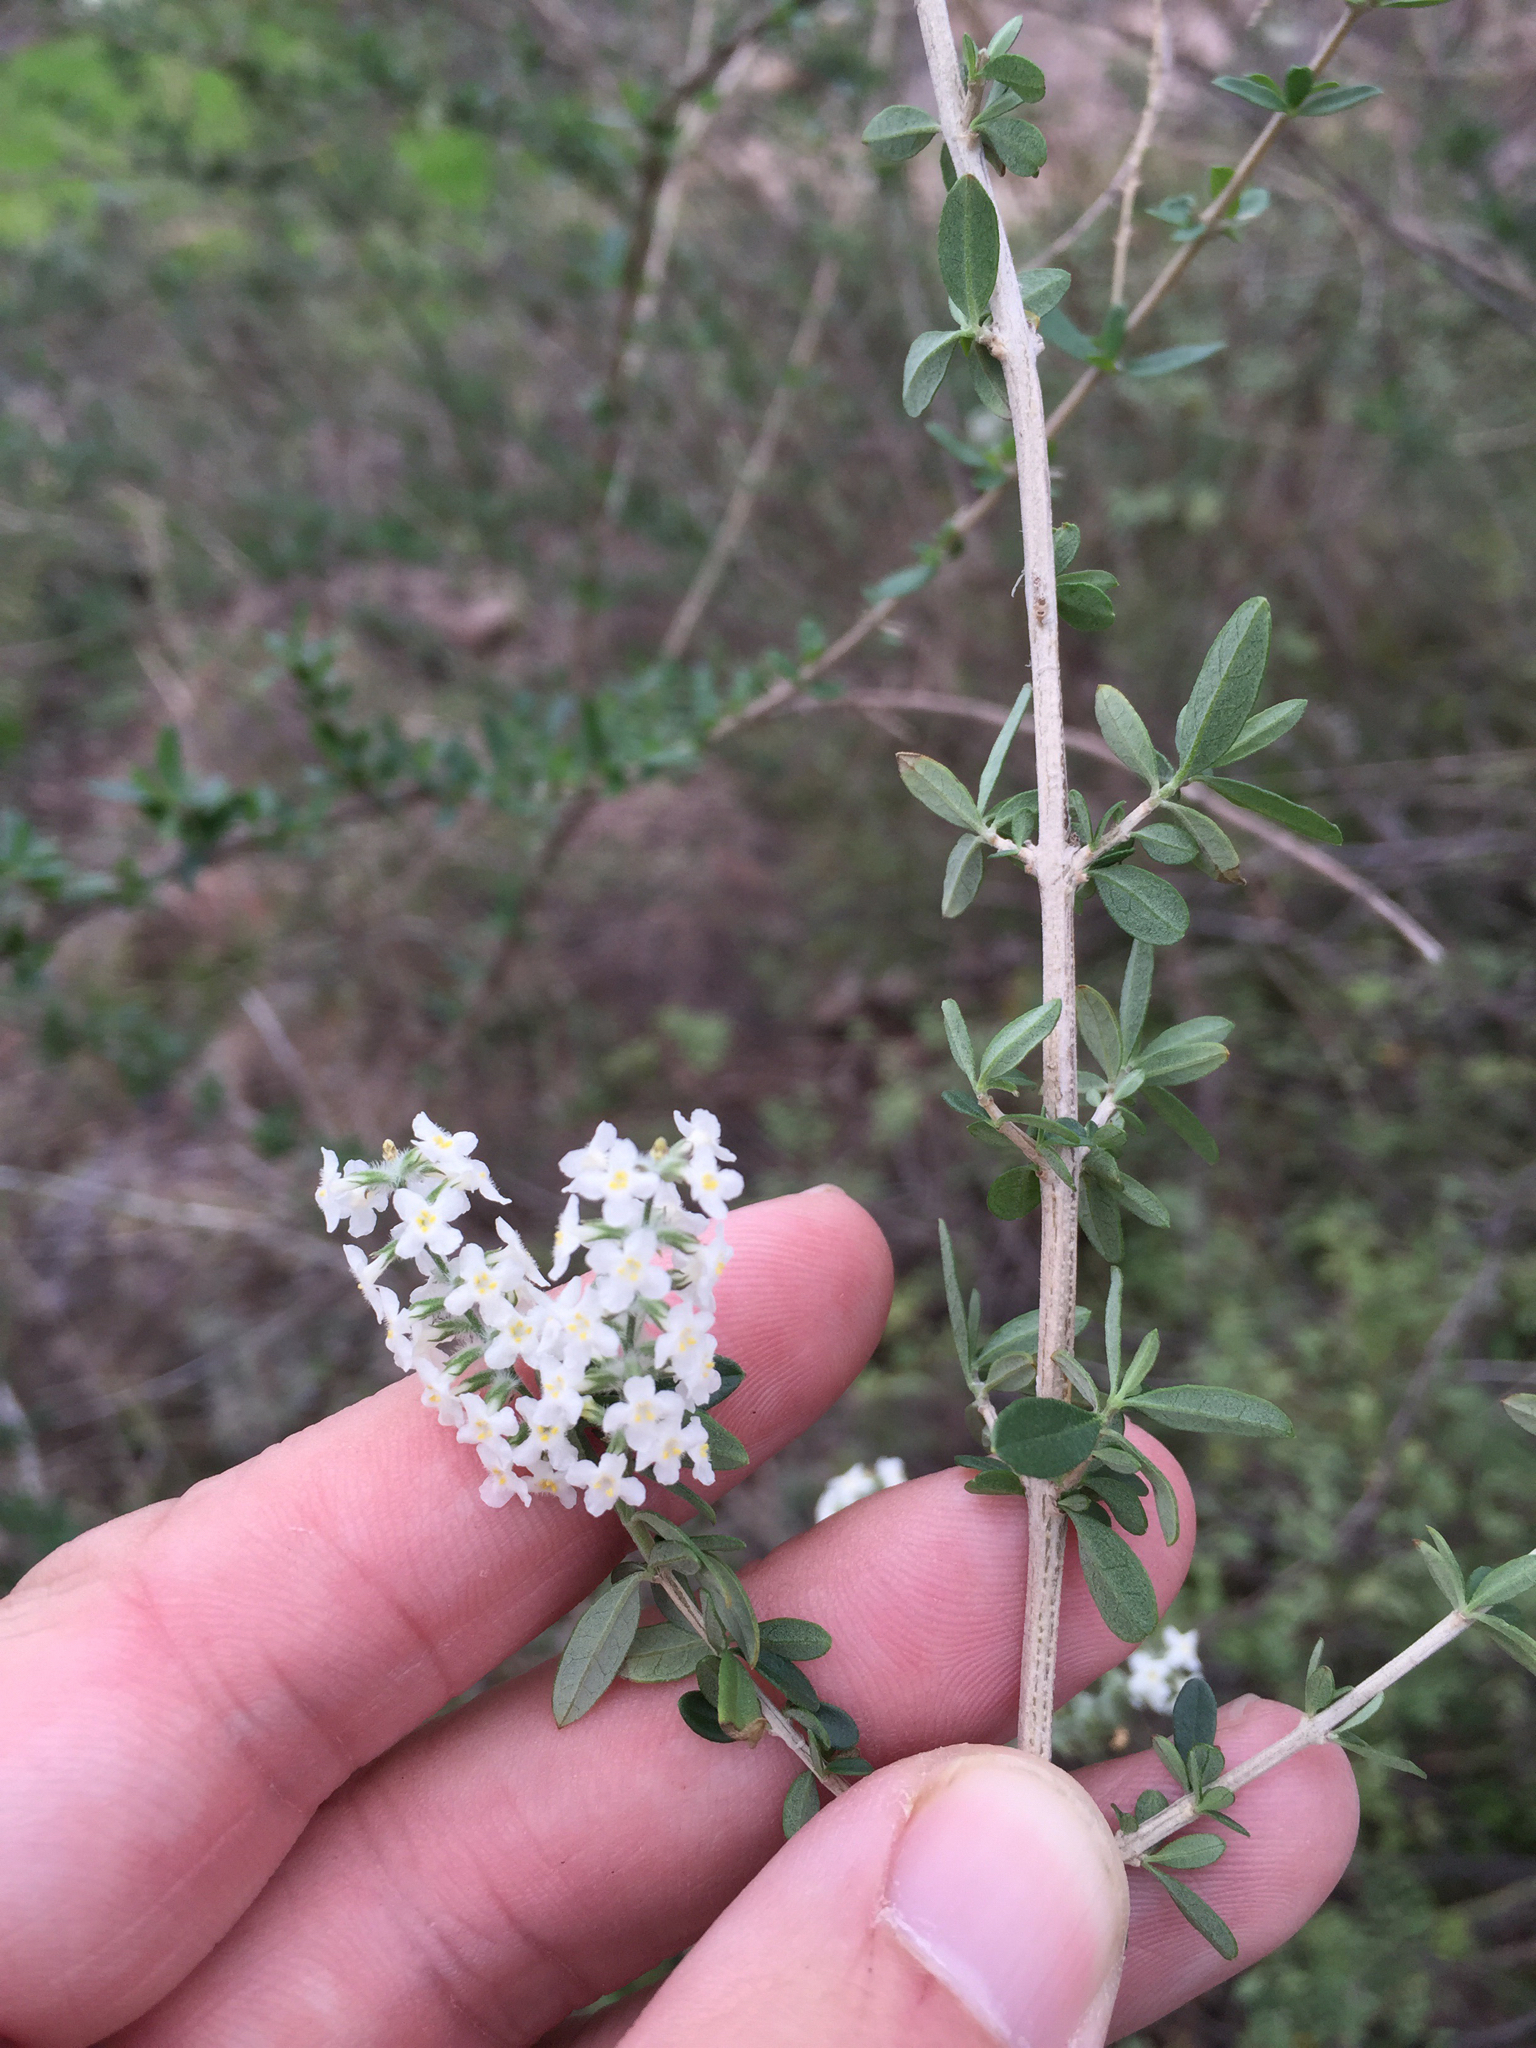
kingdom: Plantae
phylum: Tracheophyta
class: Magnoliopsida
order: Lamiales
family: Verbenaceae
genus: Aloysia
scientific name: Aloysia gratissima
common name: Common bee-brush
